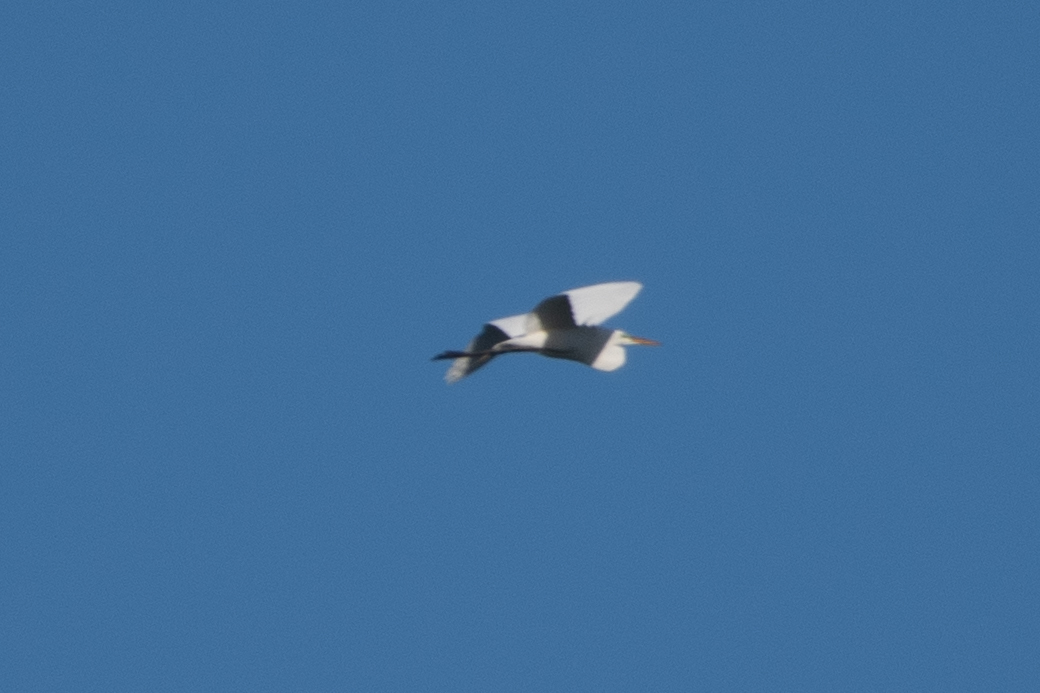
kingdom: Animalia
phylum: Chordata
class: Aves
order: Pelecaniformes
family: Ardeidae
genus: Ardea
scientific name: Ardea alba
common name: Great egret
